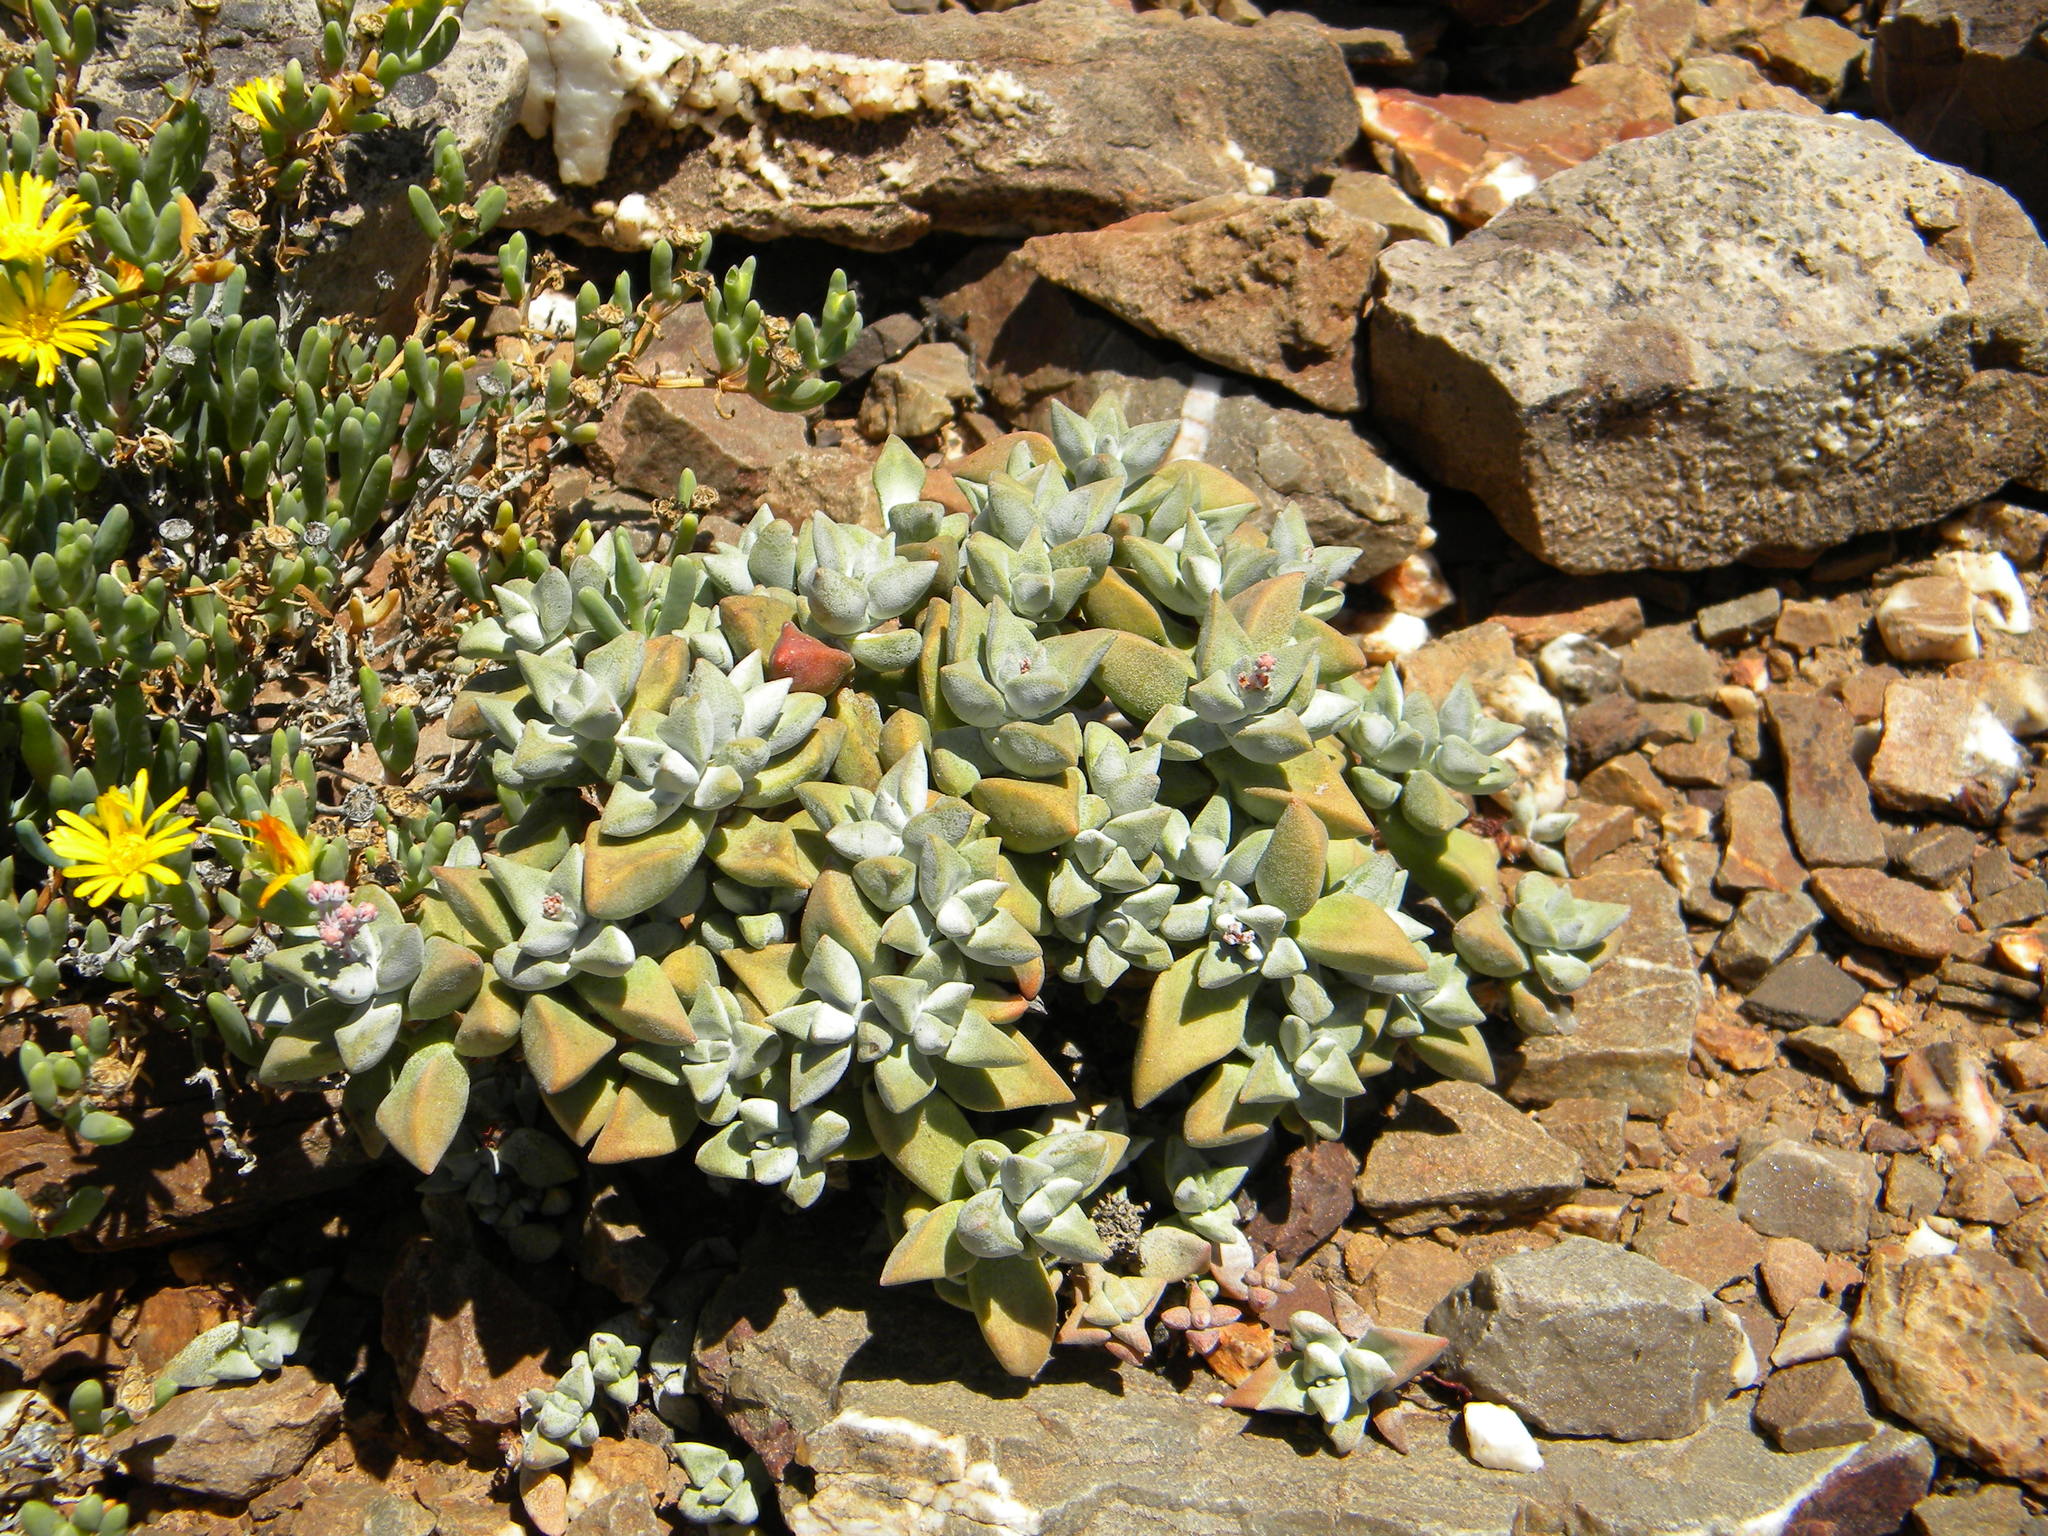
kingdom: Plantae
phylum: Tracheophyta
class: Magnoliopsida
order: Saxifragales
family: Crassulaceae
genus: Crassula
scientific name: Crassula deltoidea
